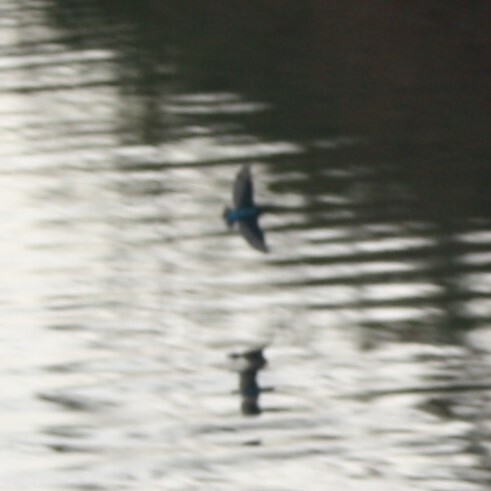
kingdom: Animalia
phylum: Chordata
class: Aves
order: Coraciiformes
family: Alcedinidae
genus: Alcedo
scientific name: Alcedo atthis
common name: Common kingfisher
